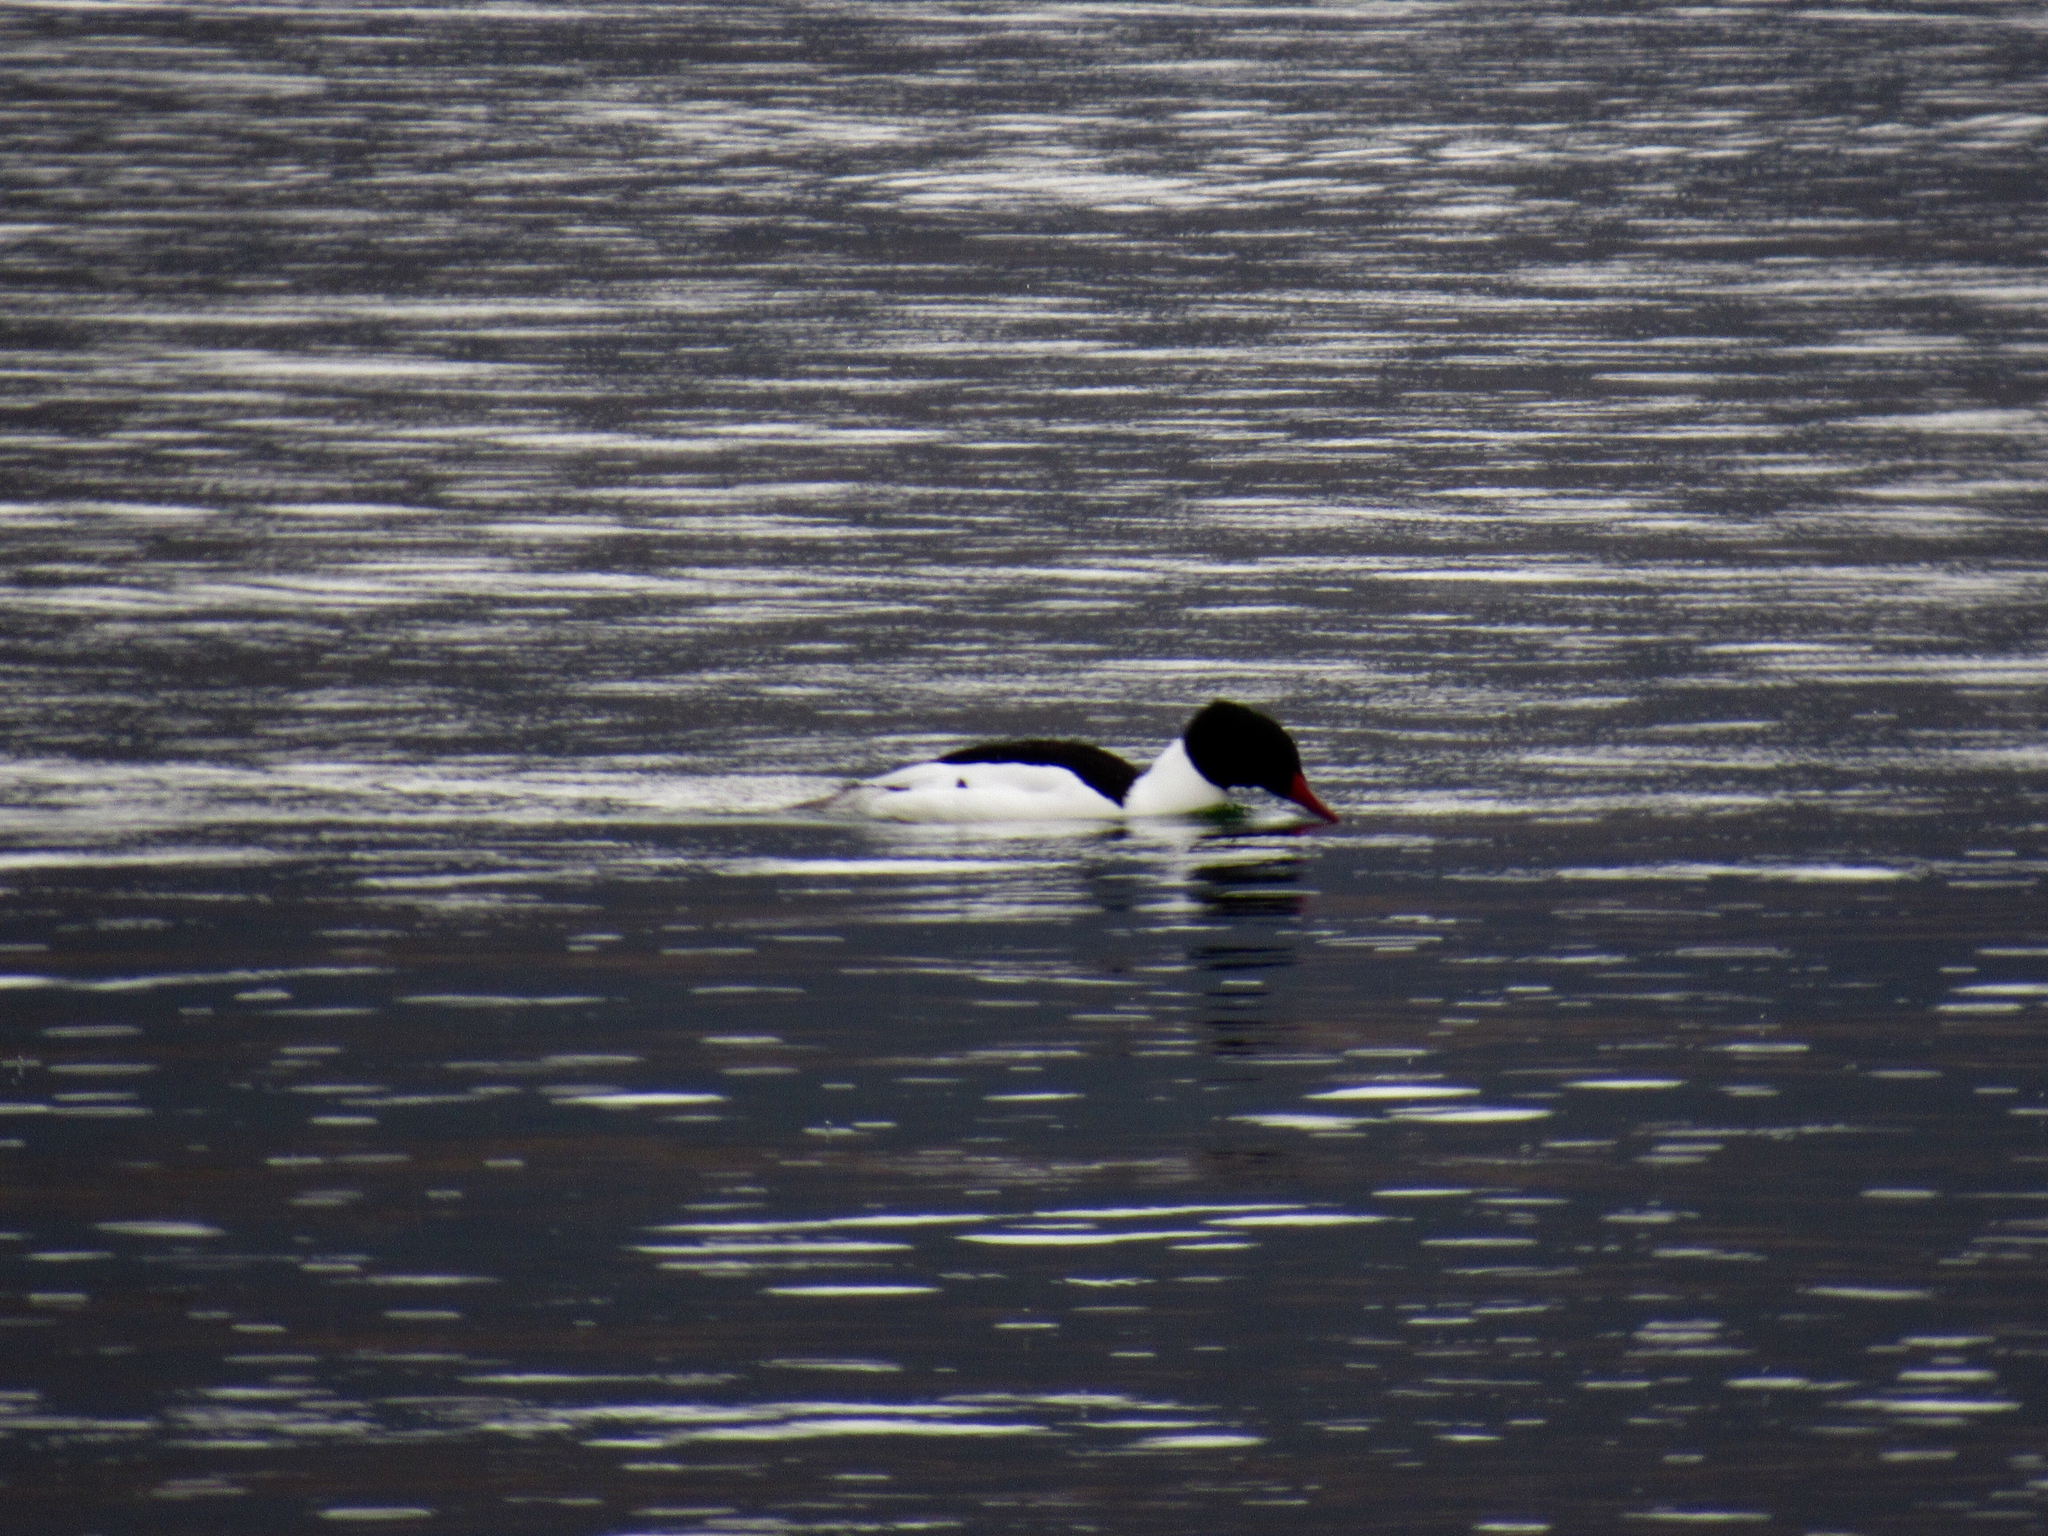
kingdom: Animalia
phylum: Chordata
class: Aves
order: Anseriformes
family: Anatidae
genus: Mergus
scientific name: Mergus merganser
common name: Common merganser
